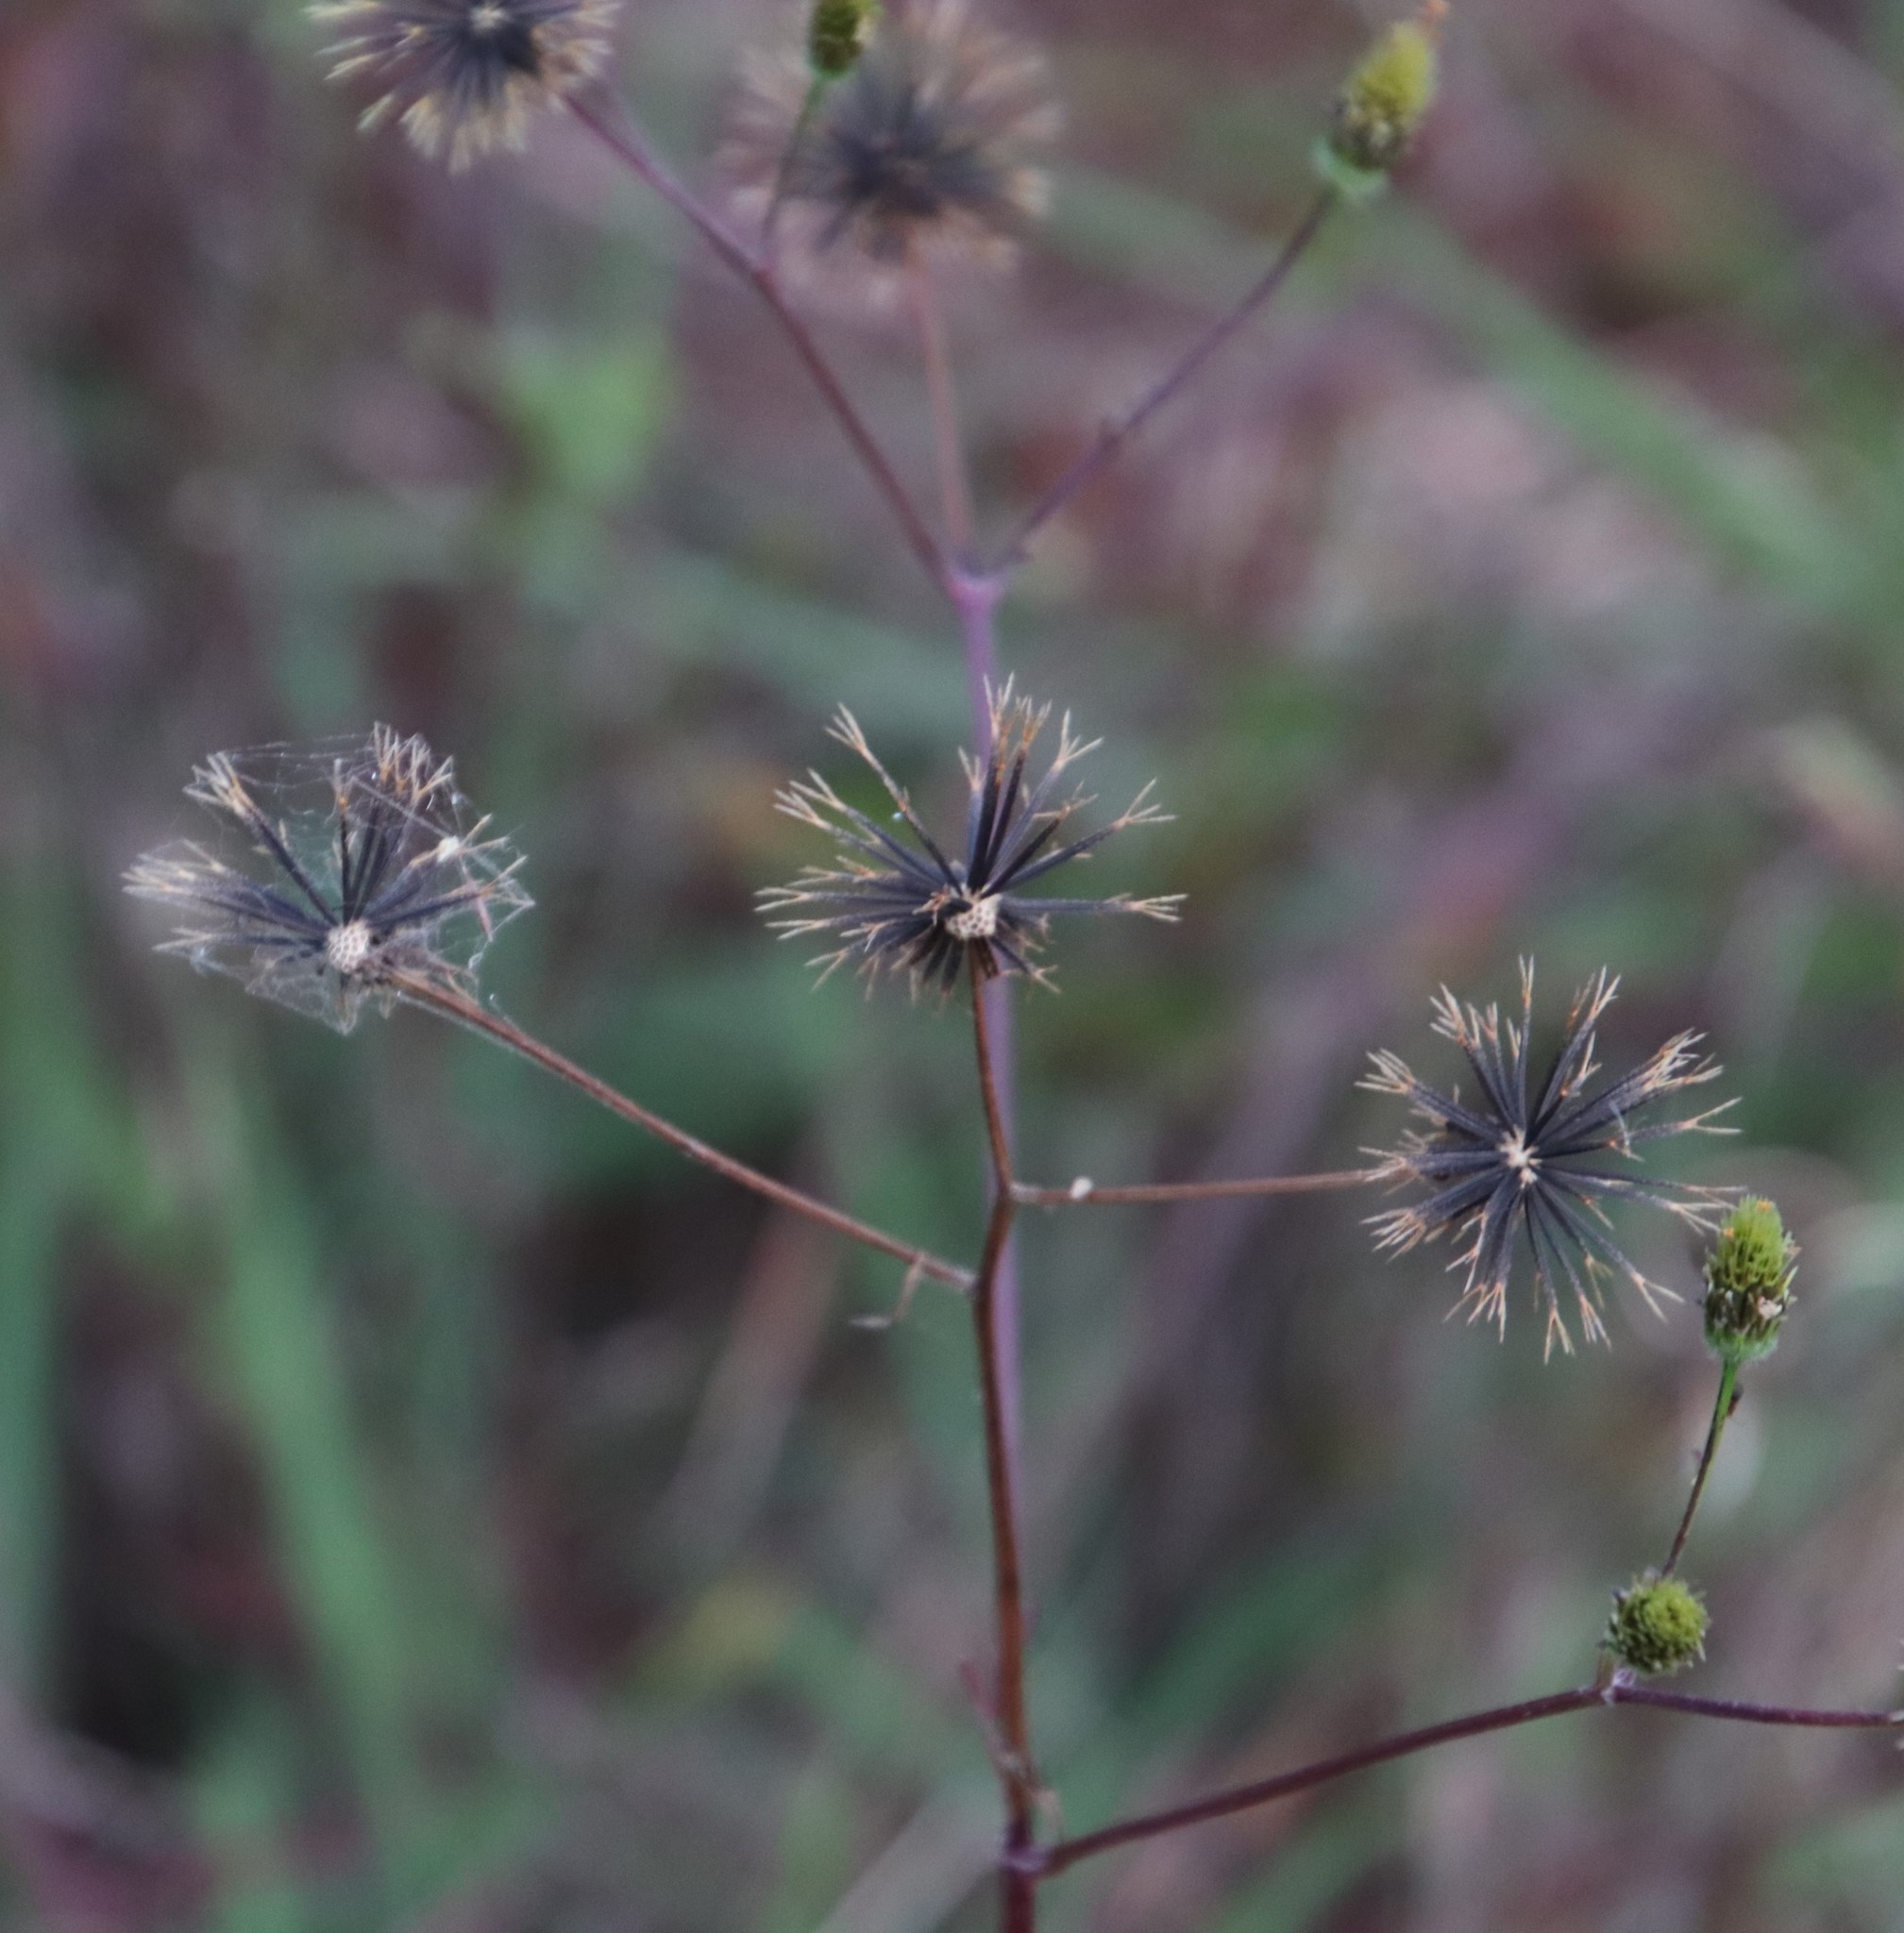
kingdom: Plantae
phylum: Tracheophyta
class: Magnoliopsida
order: Asterales
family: Asteraceae
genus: Bidens
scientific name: Bidens pilosa
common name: Black-jack
